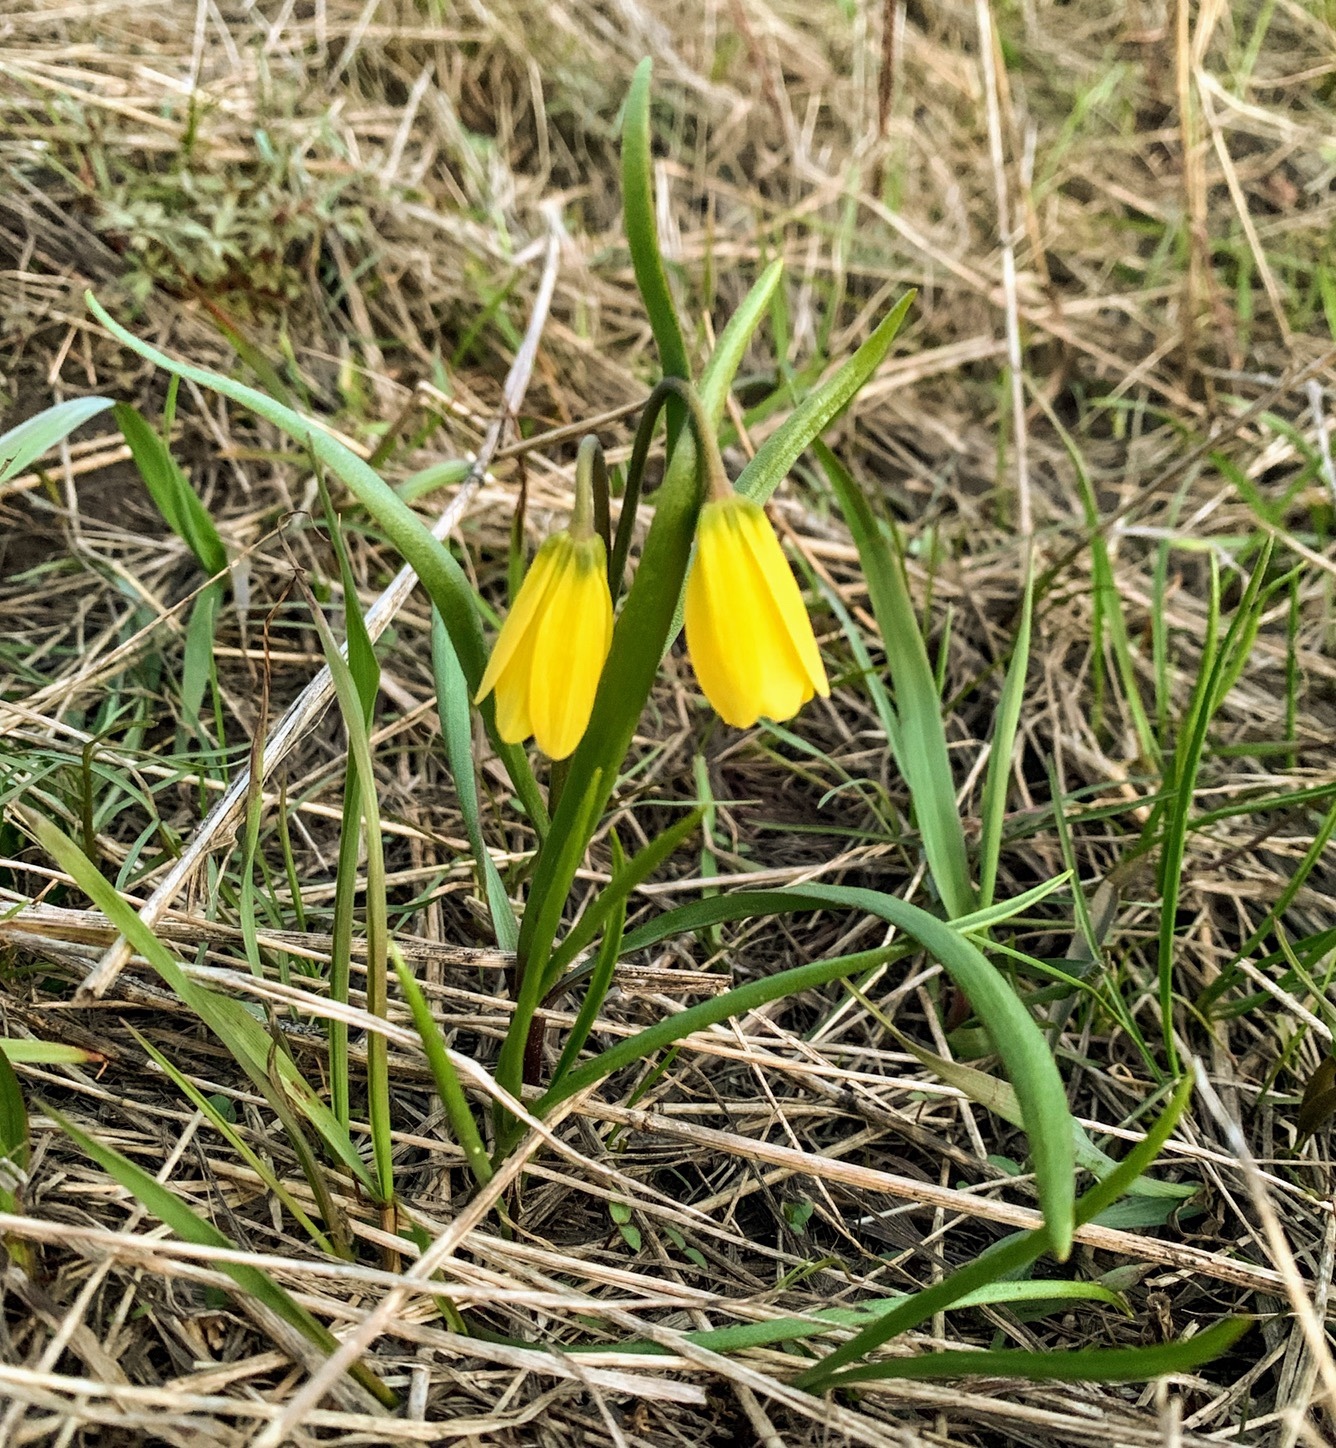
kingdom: Plantae
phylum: Tracheophyta
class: Liliopsida
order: Liliales
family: Liliaceae
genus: Fritillaria
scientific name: Fritillaria pudica
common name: Yellow fritillary
